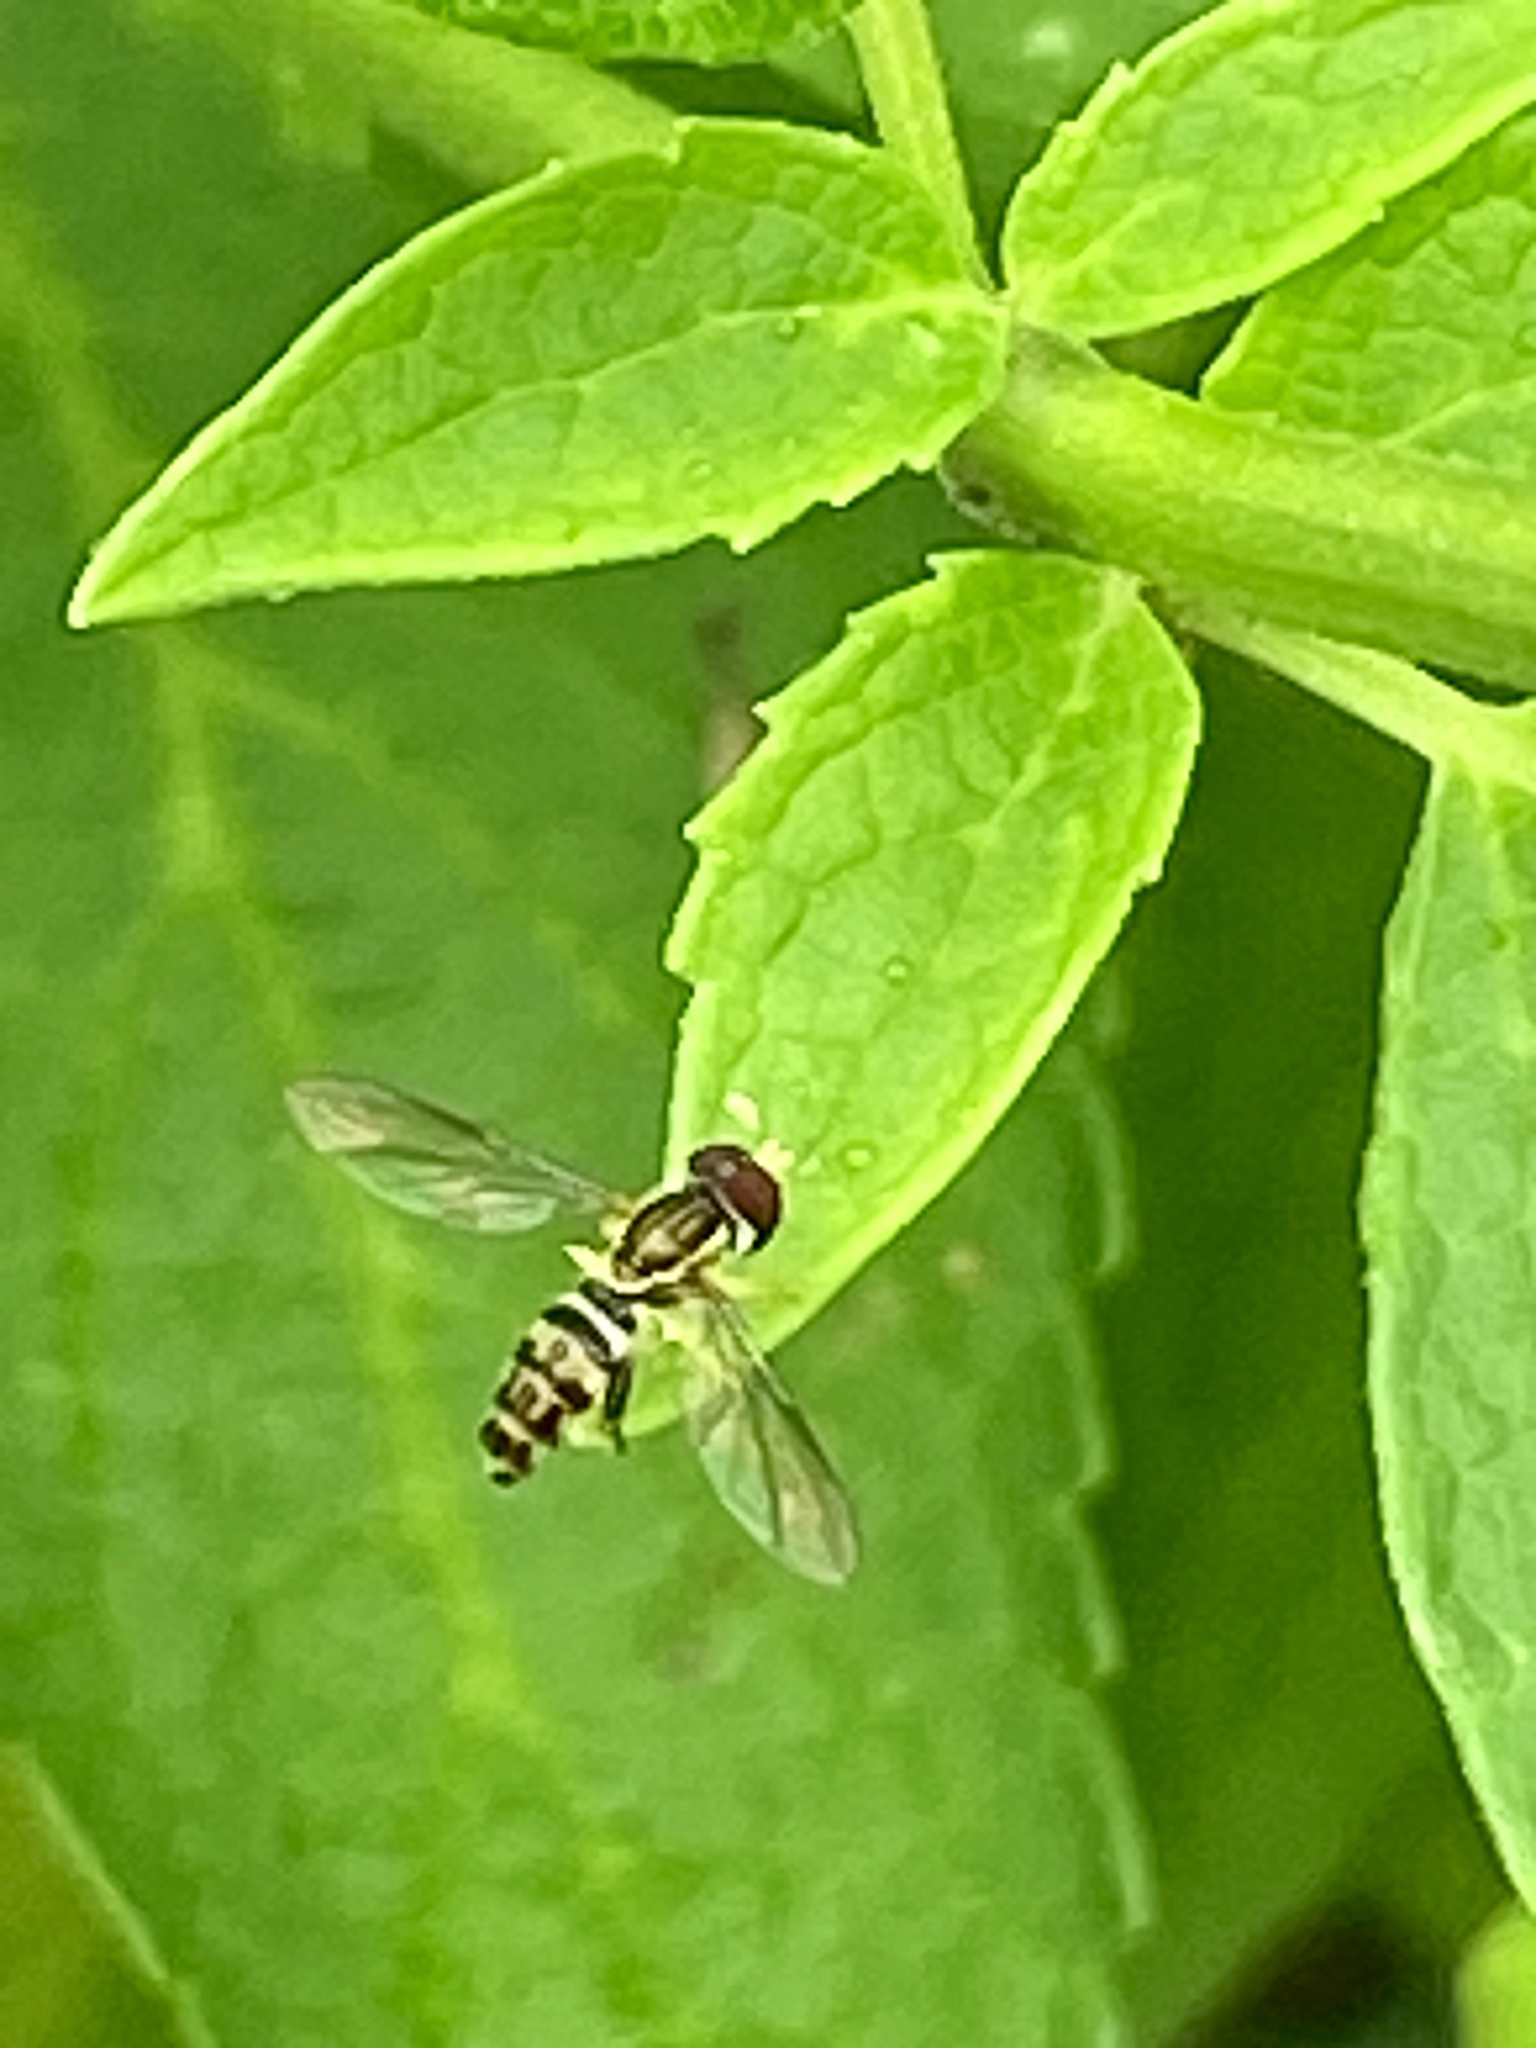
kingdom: Animalia
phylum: Arthropoda
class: Insecta
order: Diptera
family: Syrphidae
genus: Toxomerus
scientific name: Toxomerus geminatus
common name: Eastern calligrapher
